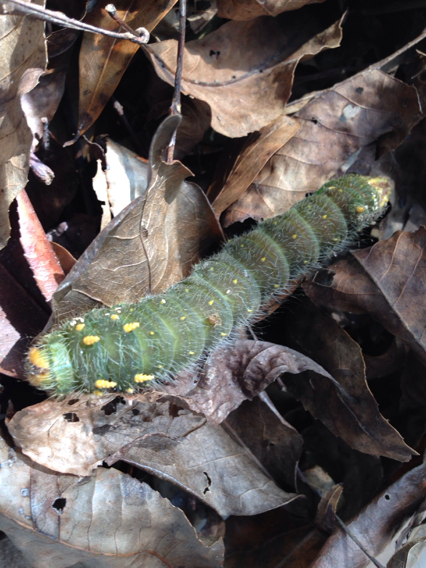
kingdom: Animalia
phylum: Arthropoda
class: Insecta
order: Lepidoptera
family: Saturniidae
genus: Eacles
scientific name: Eacles imperialis
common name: Imperial moth
